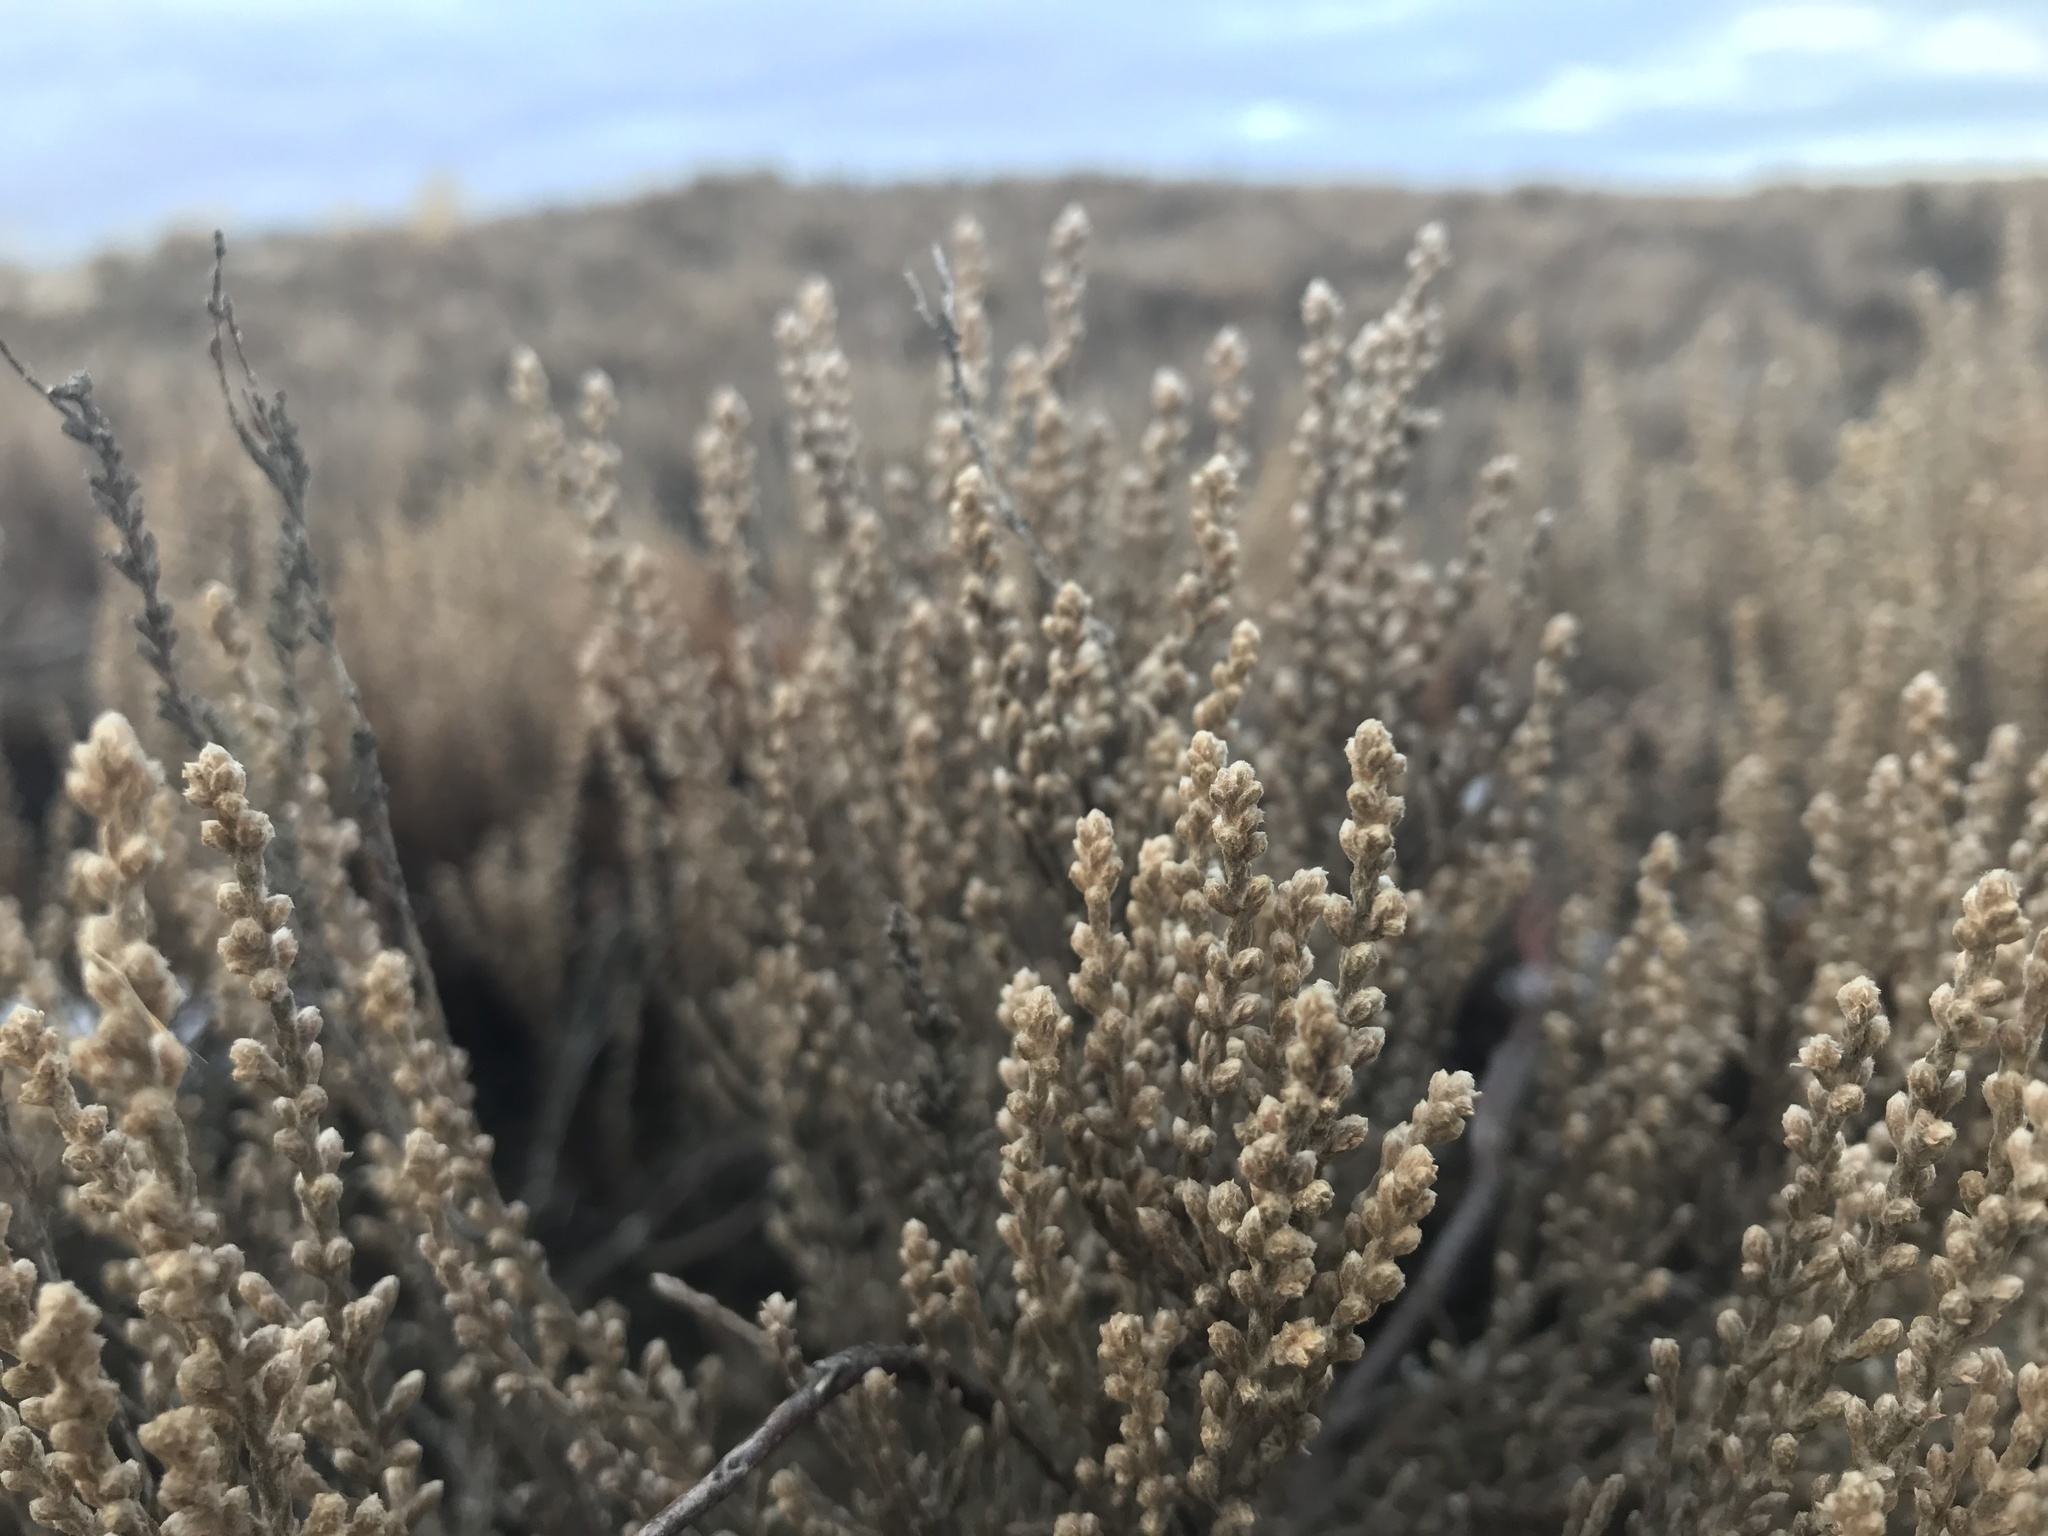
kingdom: Plantae
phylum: Tracheophyta
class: Magnoliopsida
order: Malvales
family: Cistaceae
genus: Hudsonia
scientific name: Hudsonia tomentosa
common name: Beach-heath
